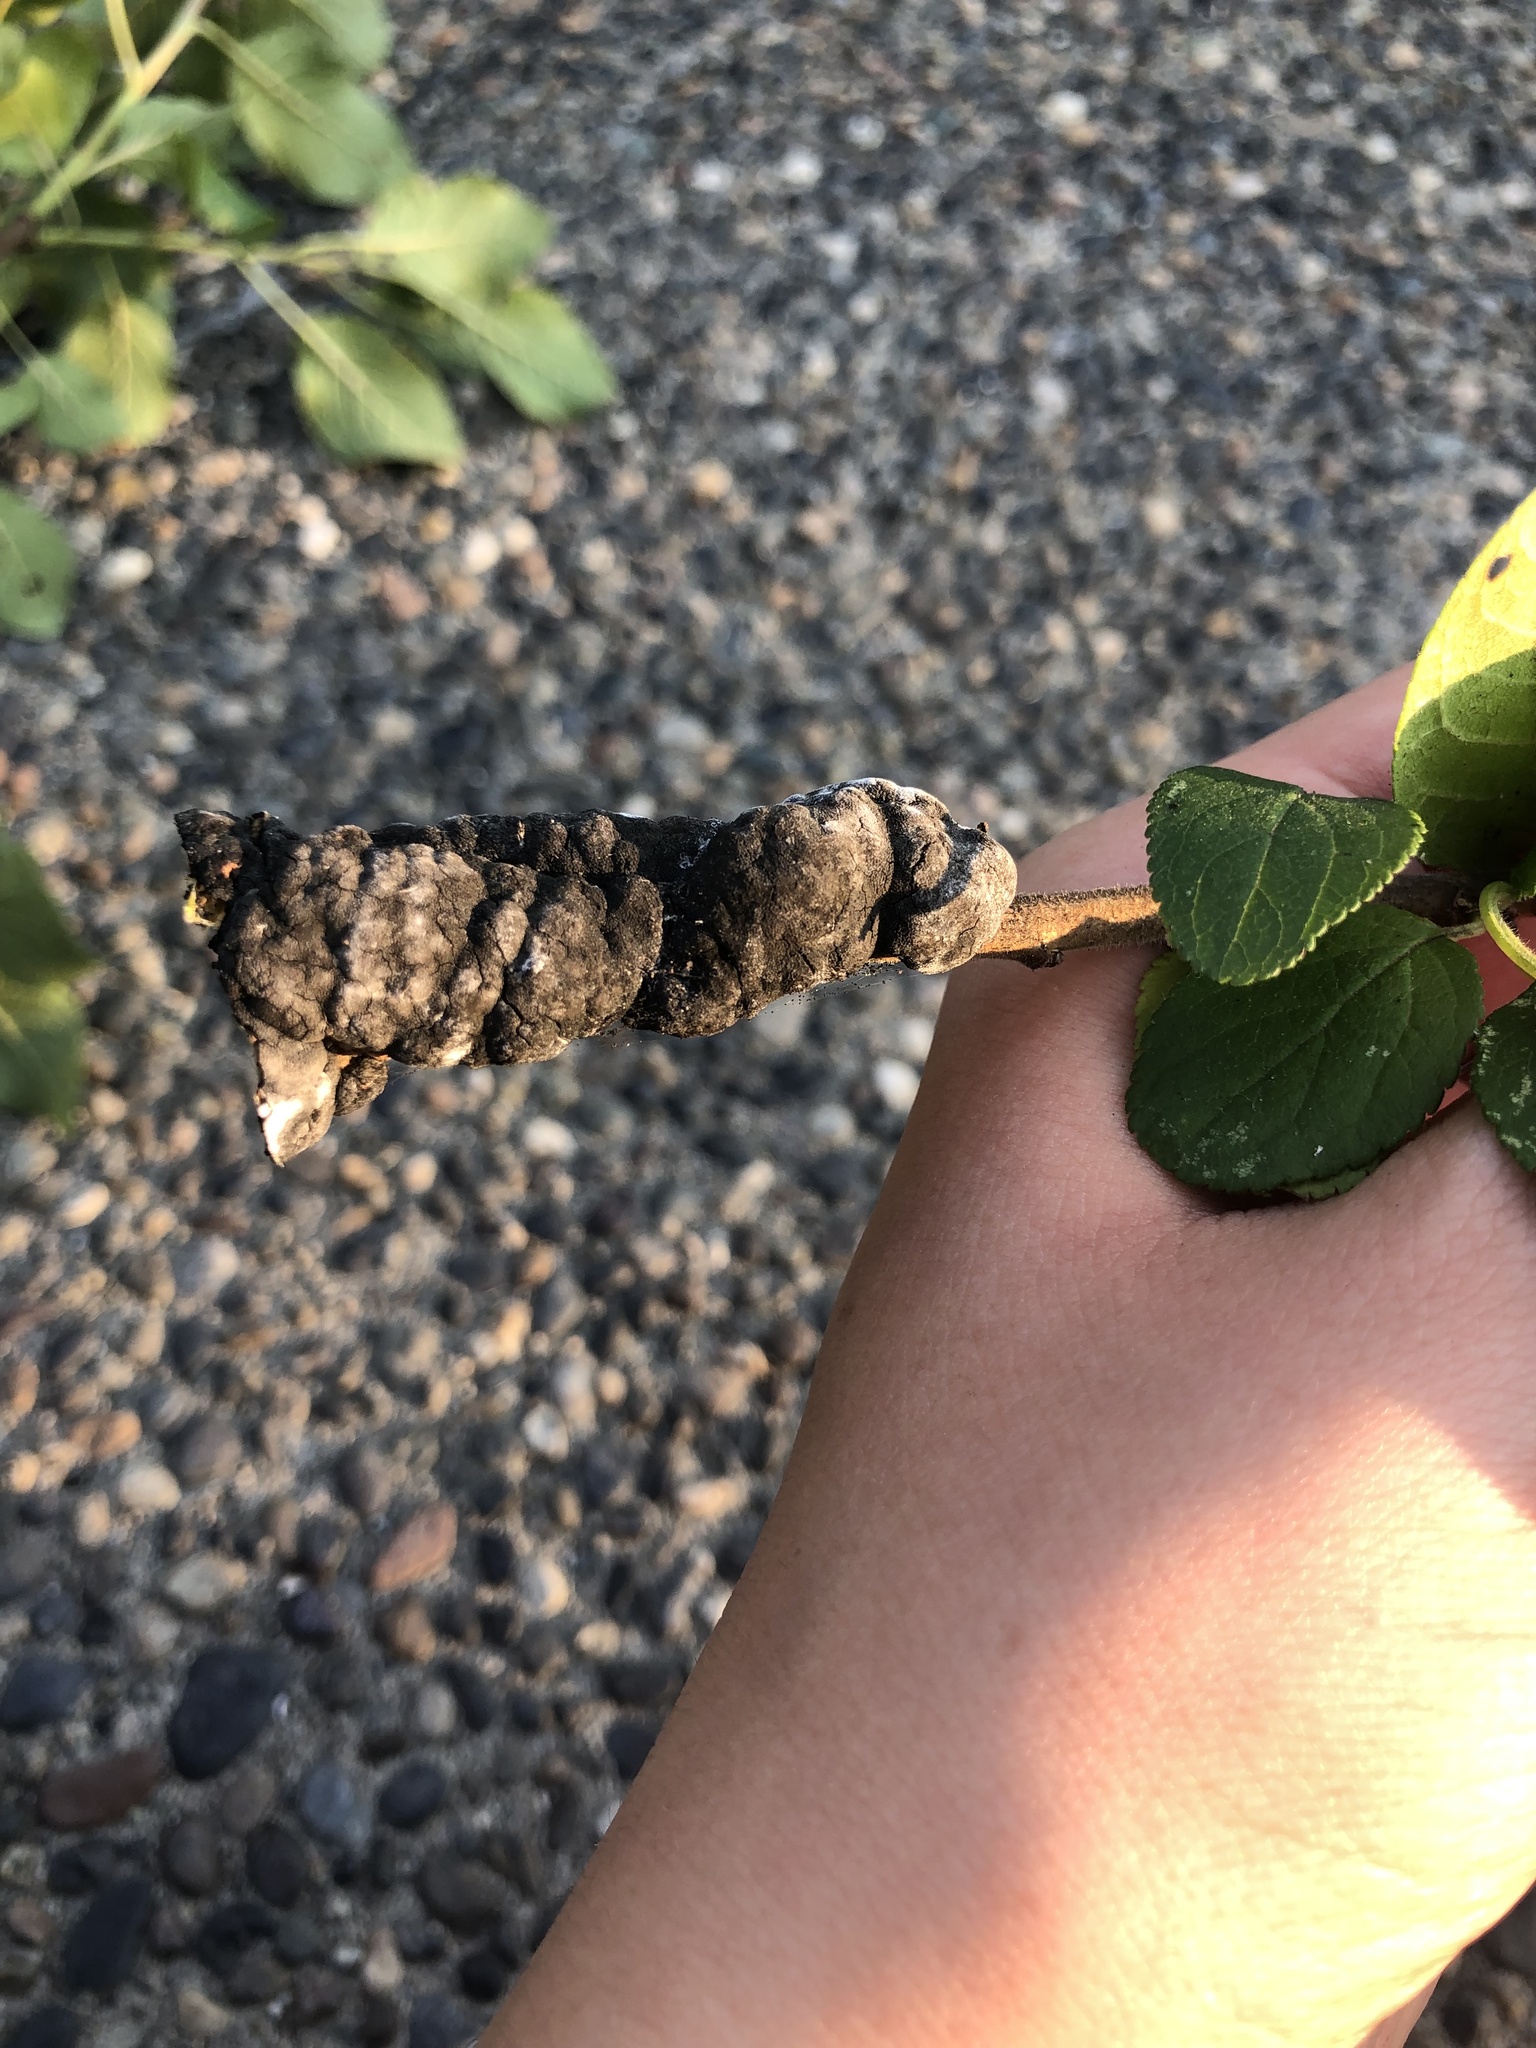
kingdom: Fungi
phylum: Ascomycota
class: Dothideomycetes
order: Venturiales
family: Venturiaceae
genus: Apiosporina
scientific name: Apiosporina morbosa
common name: Black knot
